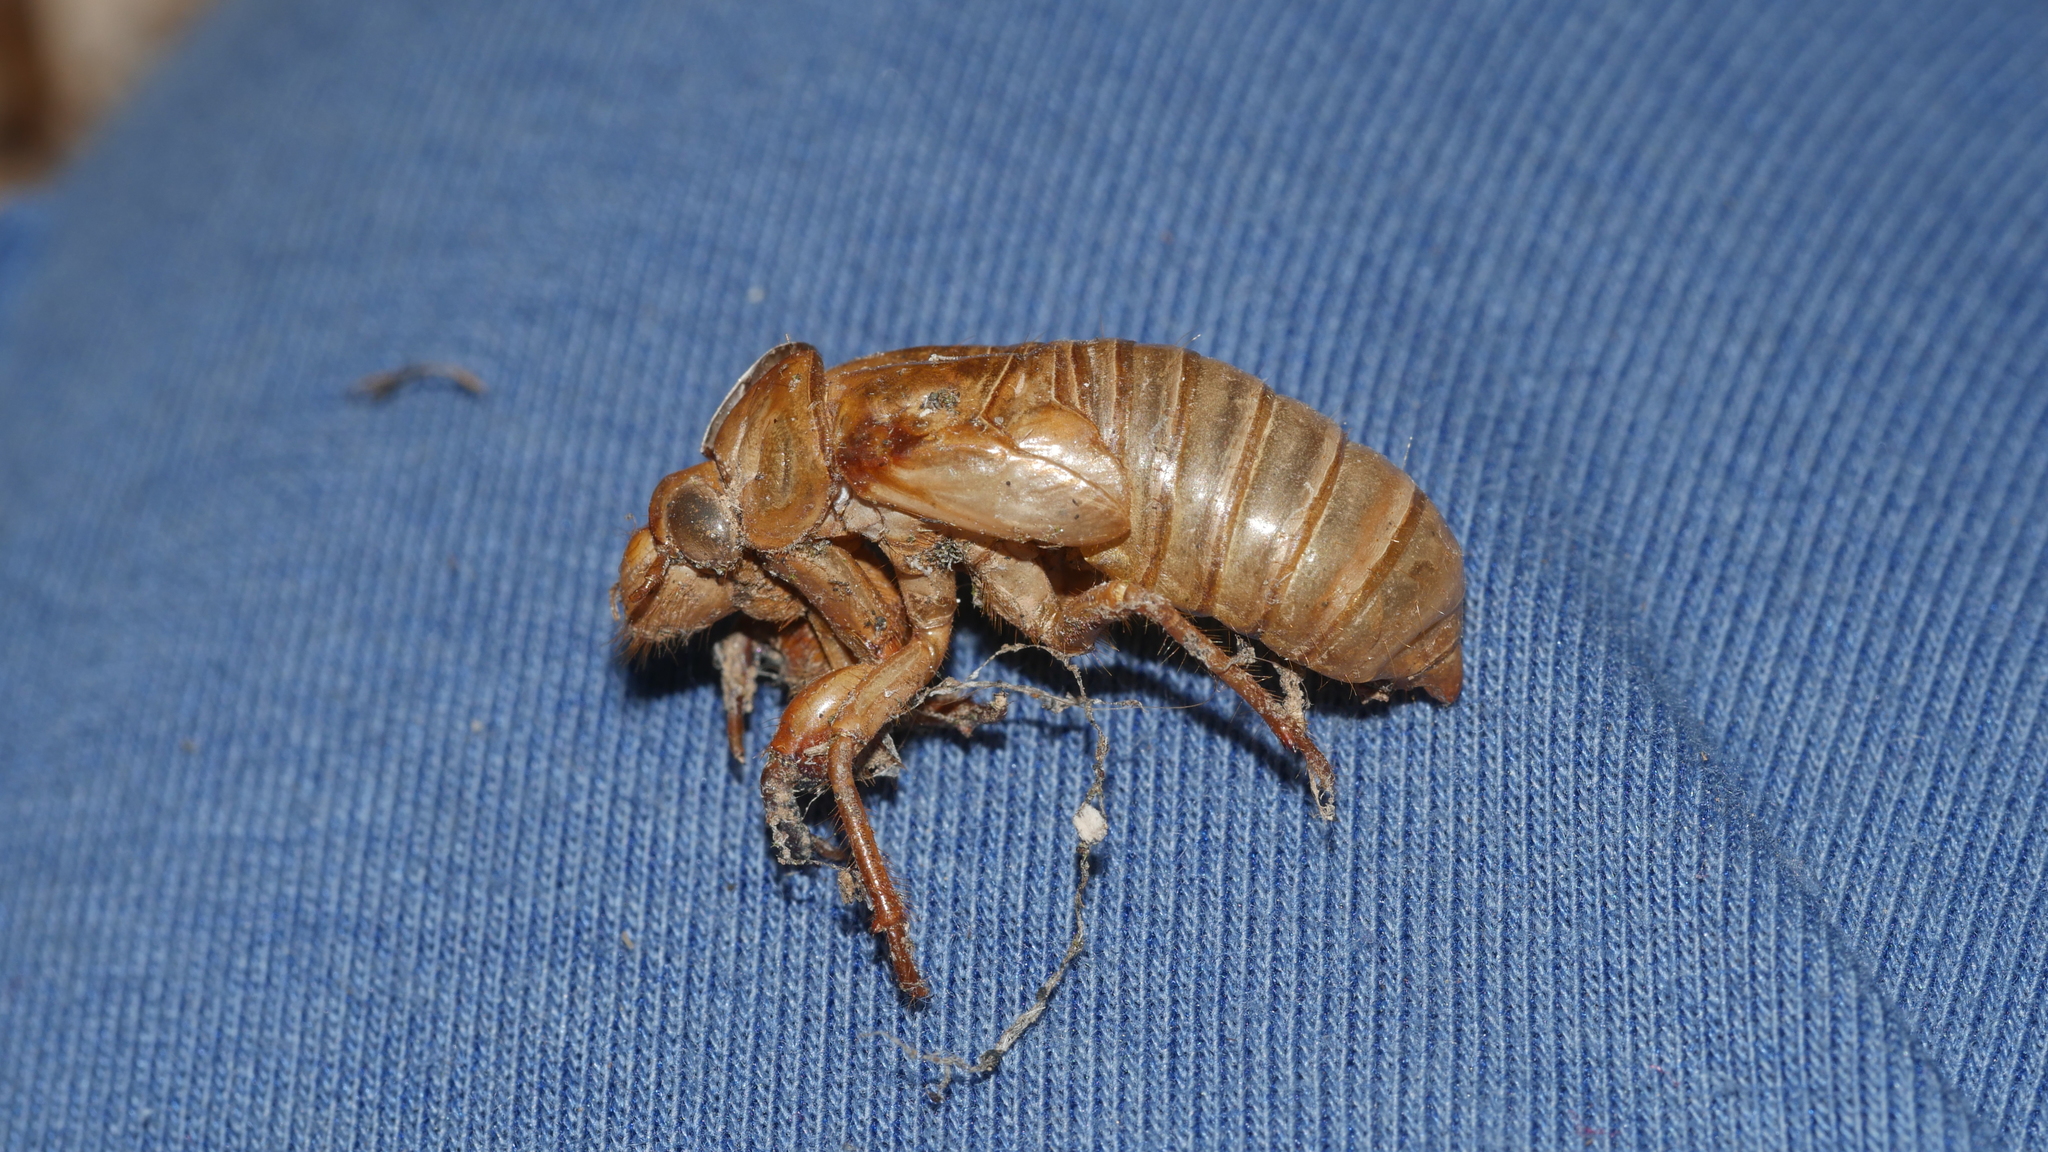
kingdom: Animalia
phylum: Arthropoda
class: Insecta
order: Hemiptera
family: Cicadidae
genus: Magicicada
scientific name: Magicicada
